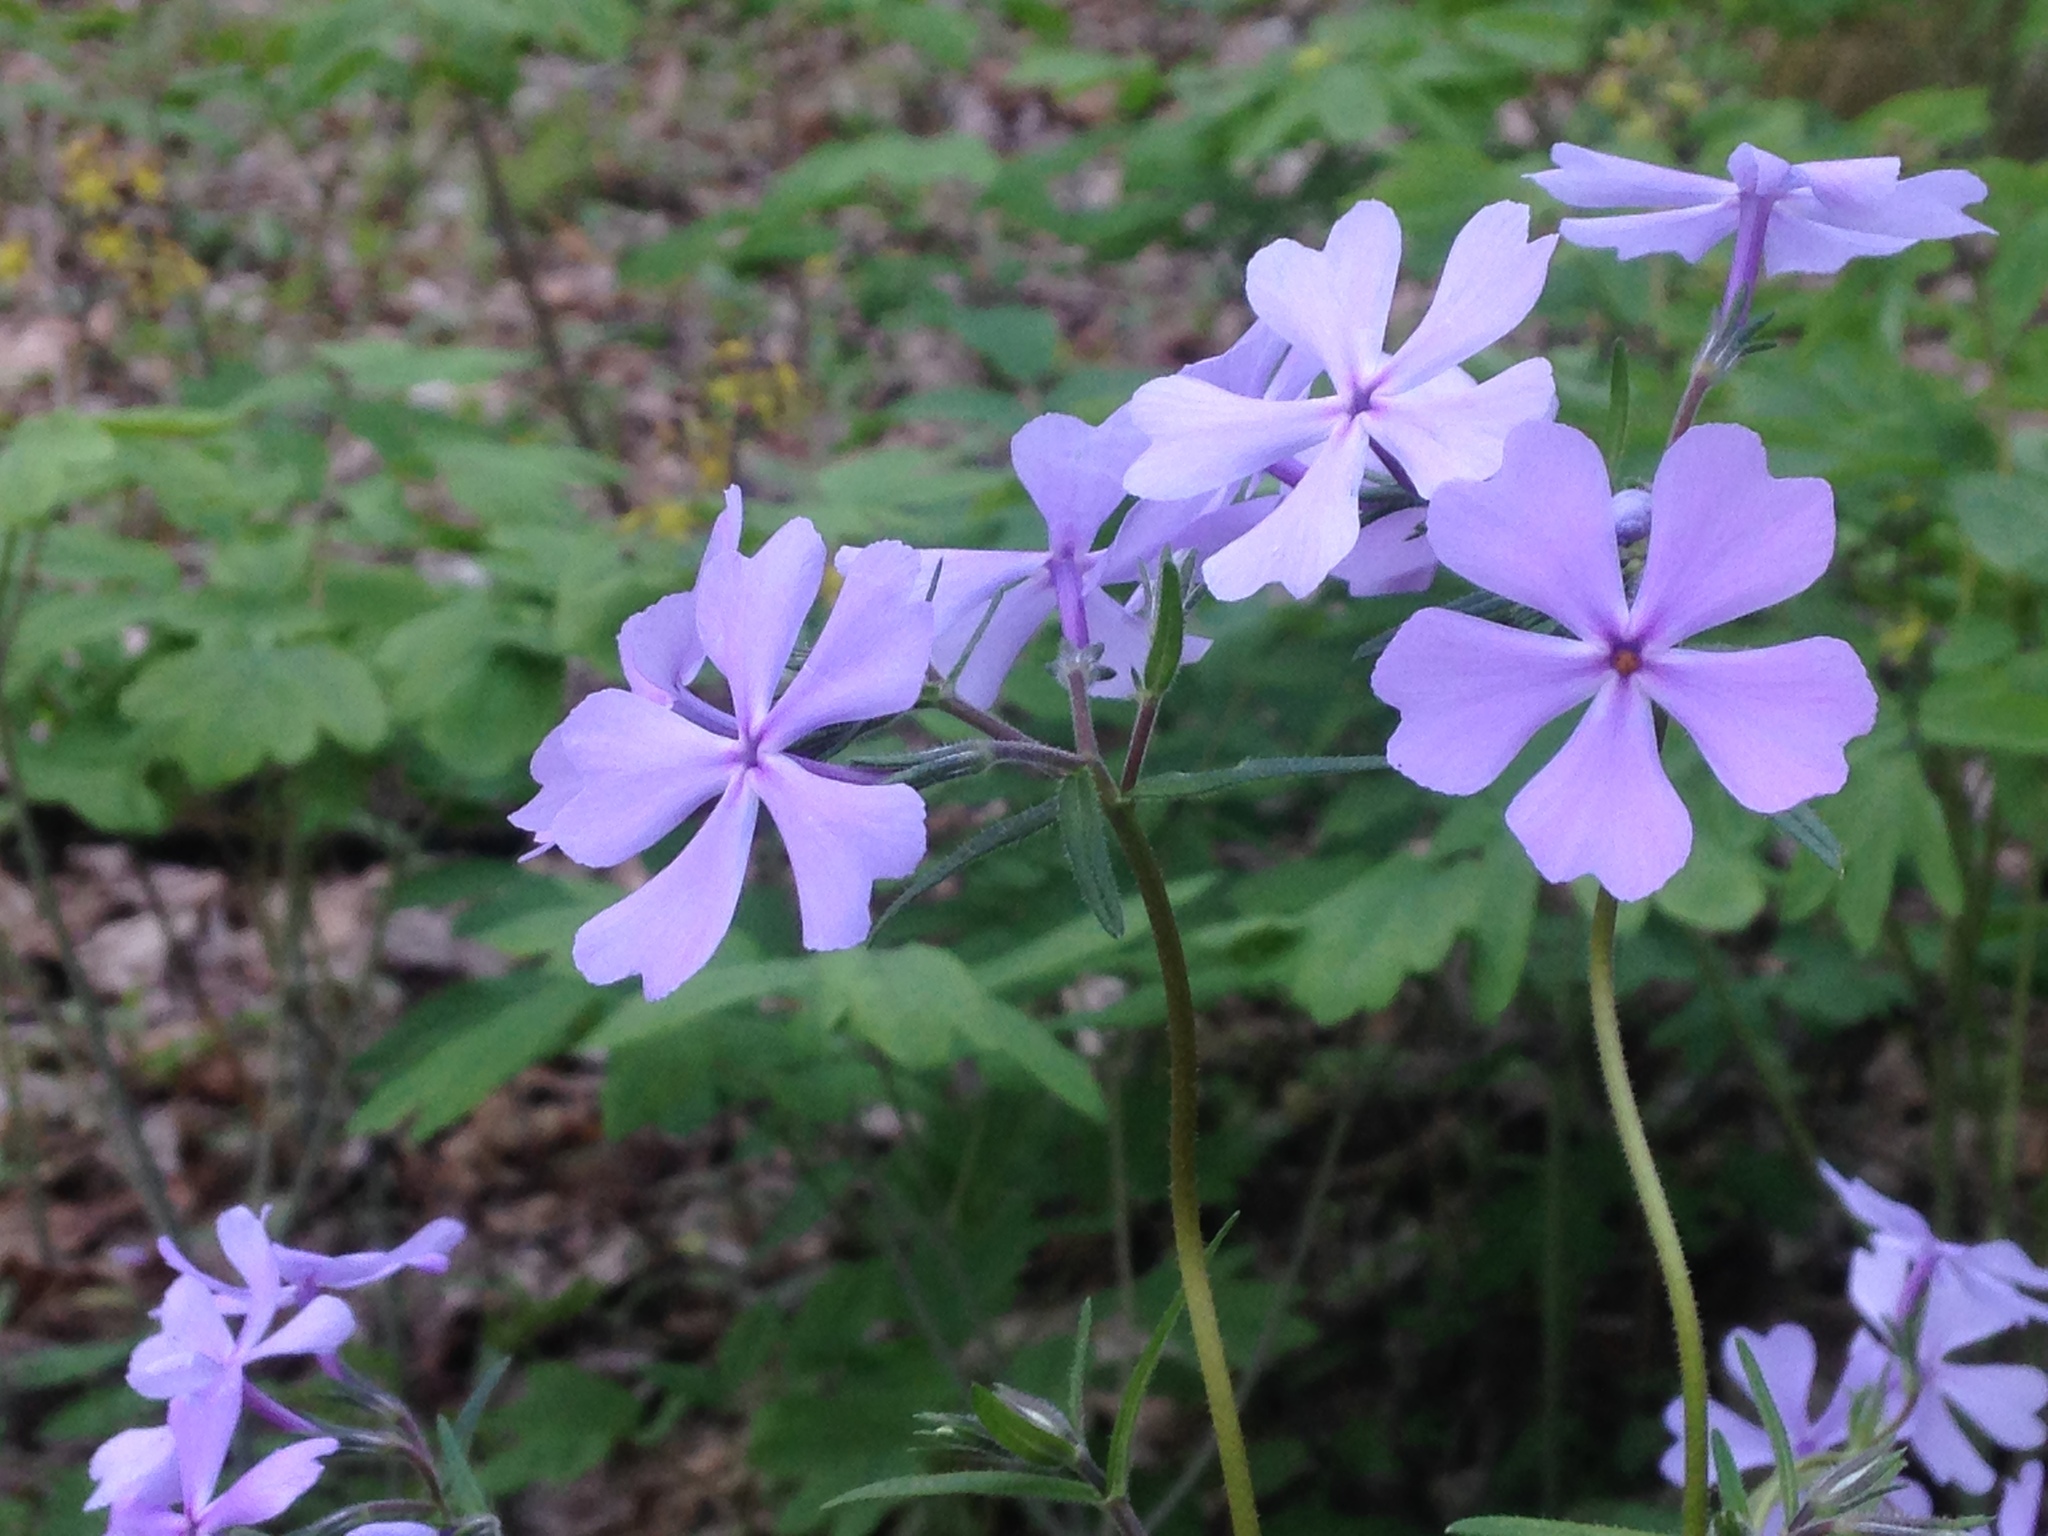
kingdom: Plantae
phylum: Tracheophyta
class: Magnoliopsida
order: Ericales
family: Polemoniaceae
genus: Phlox
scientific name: Phlox divaricata
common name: Blue phlox
